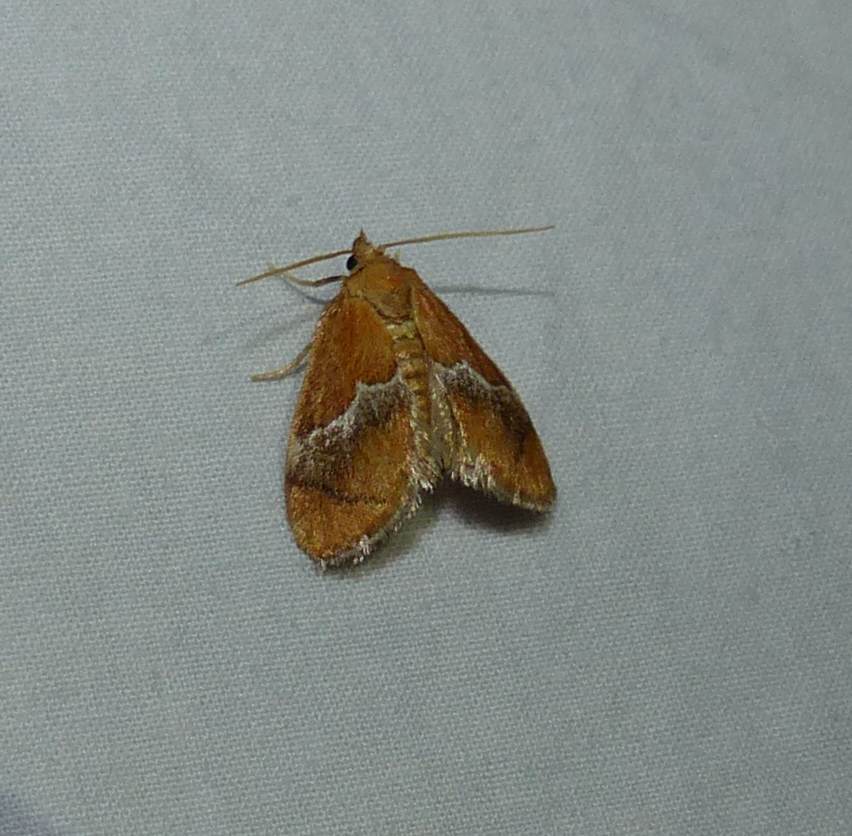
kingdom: Animalia
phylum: Arthropoda
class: Insecta
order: Lepidoptera
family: Limacodidae
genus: Lithacodes
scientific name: Lithacodes fasciola
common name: Yellow-shouldered slug moth
